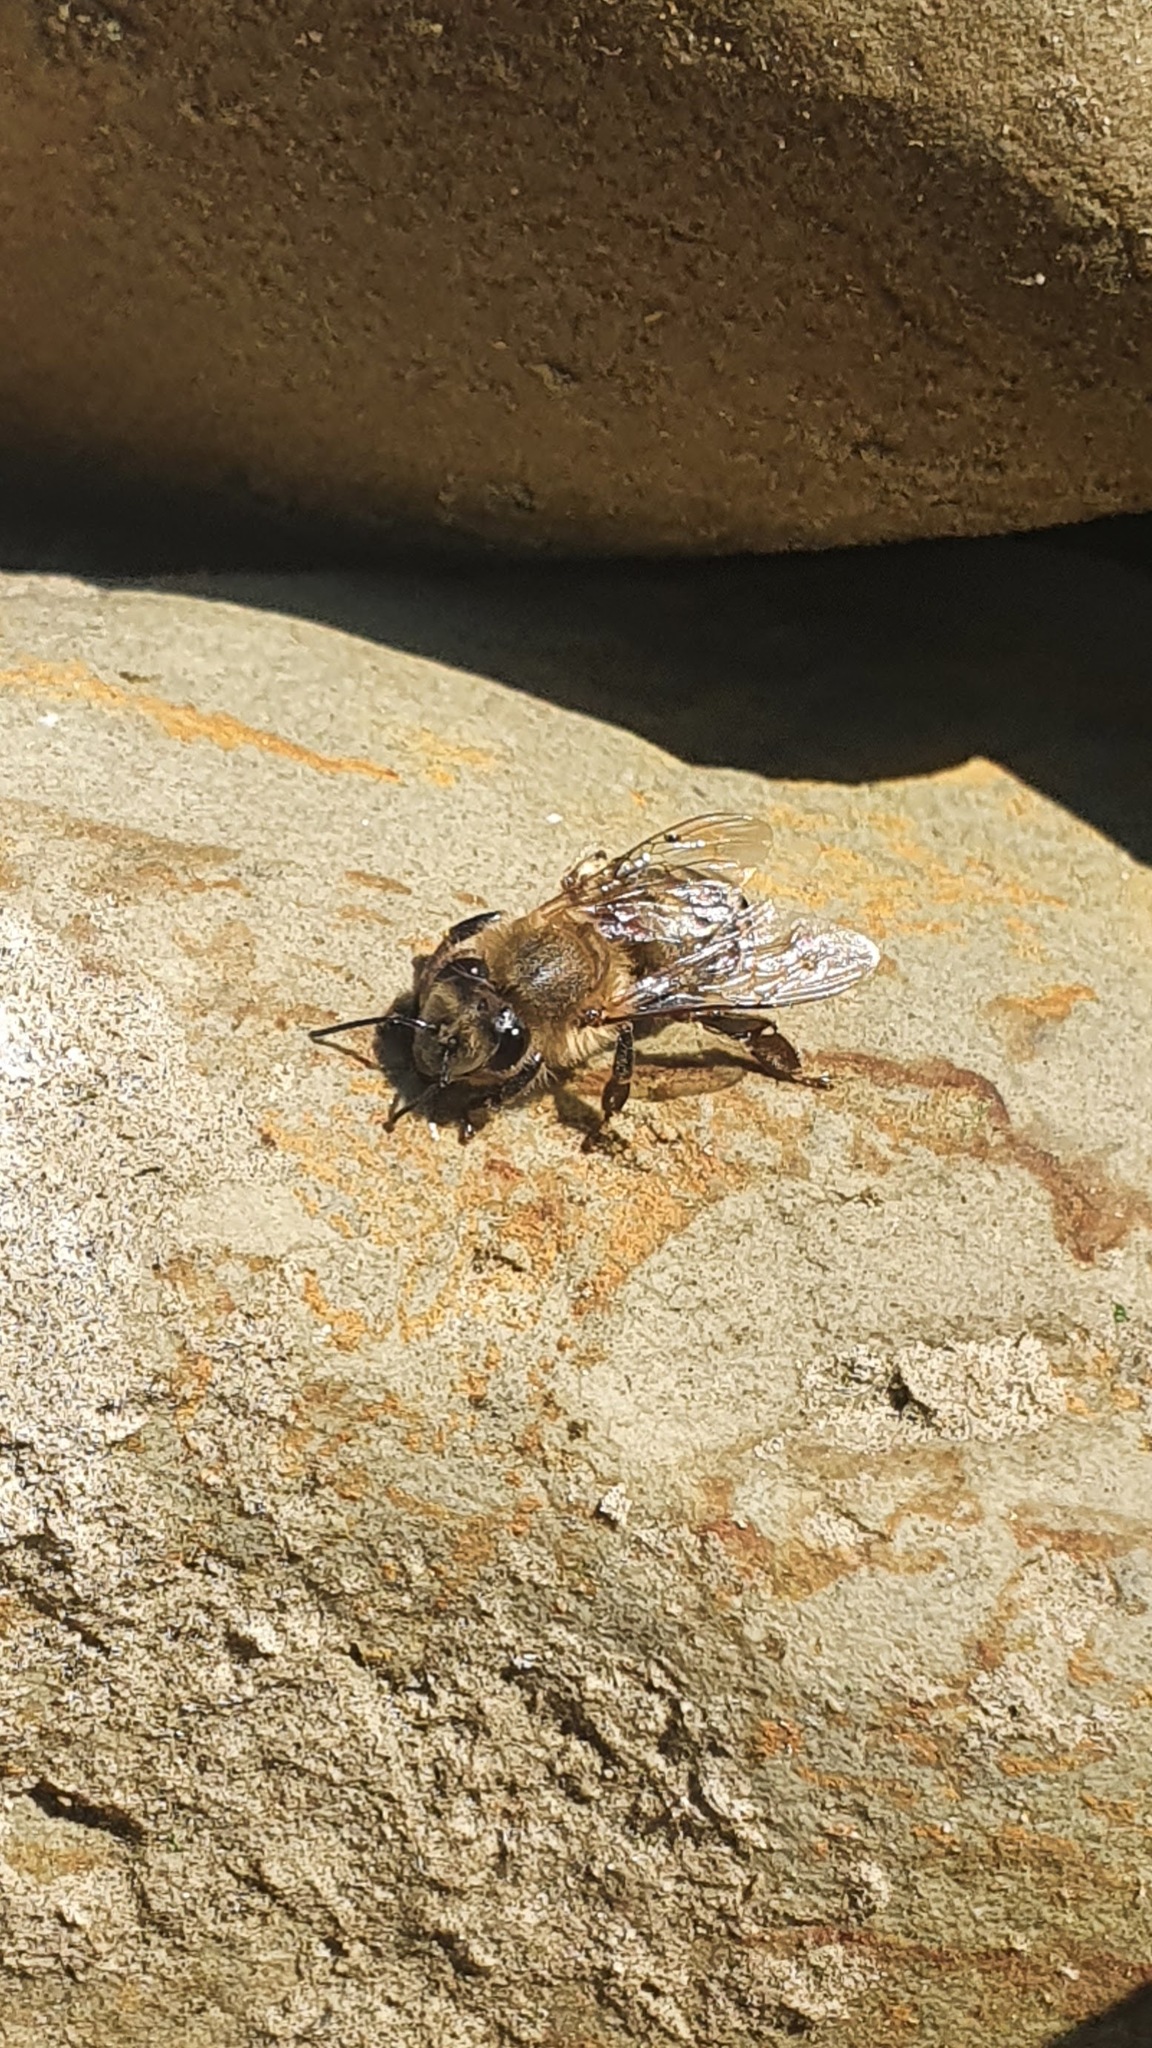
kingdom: Animalia
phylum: Arthropoda
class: Insecta
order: Hymenoptera
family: Apidae
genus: Apis
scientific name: Apis mellifera
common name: Honey bee
